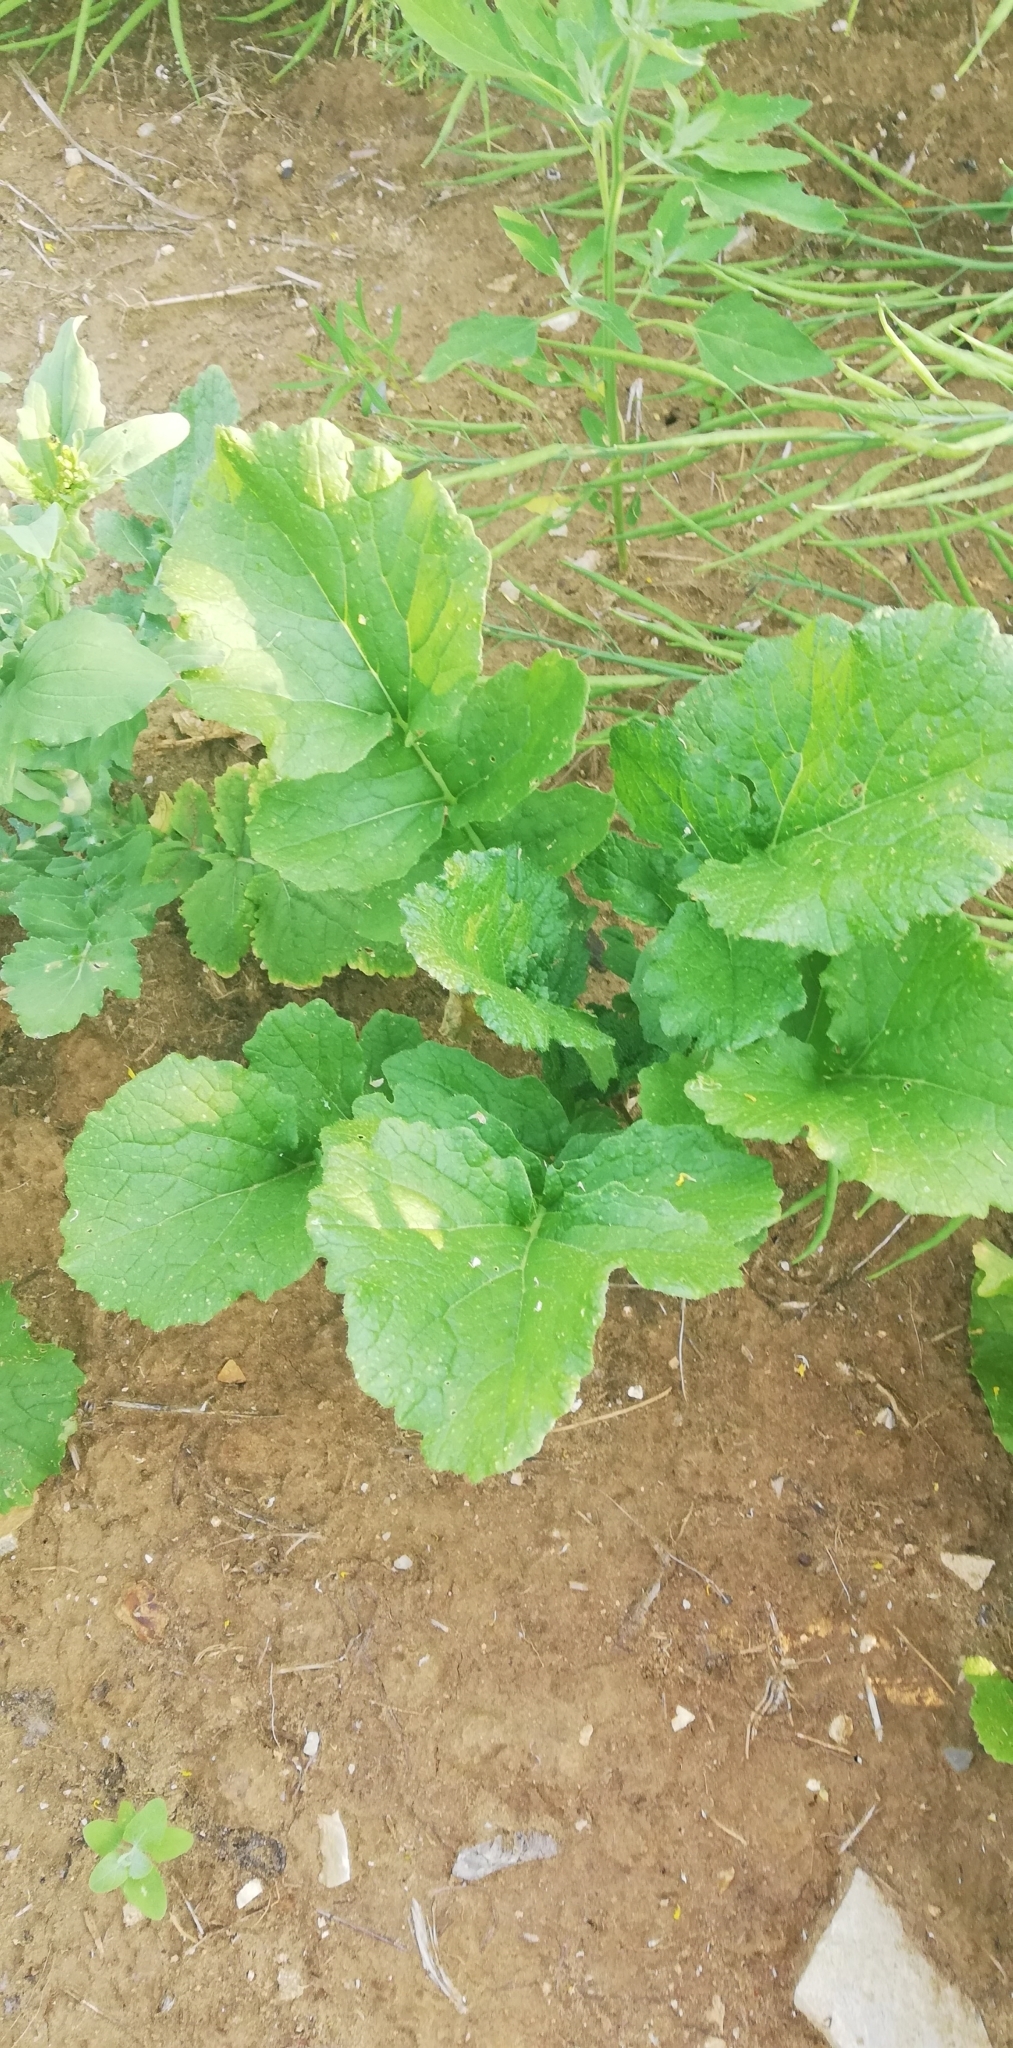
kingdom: Plantae
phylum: Tracheophyta
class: Magnoliopsida
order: Brassicales
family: Brassicaceae
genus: Raphanus
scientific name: Raphanus raphanistrum
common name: Wild radish
